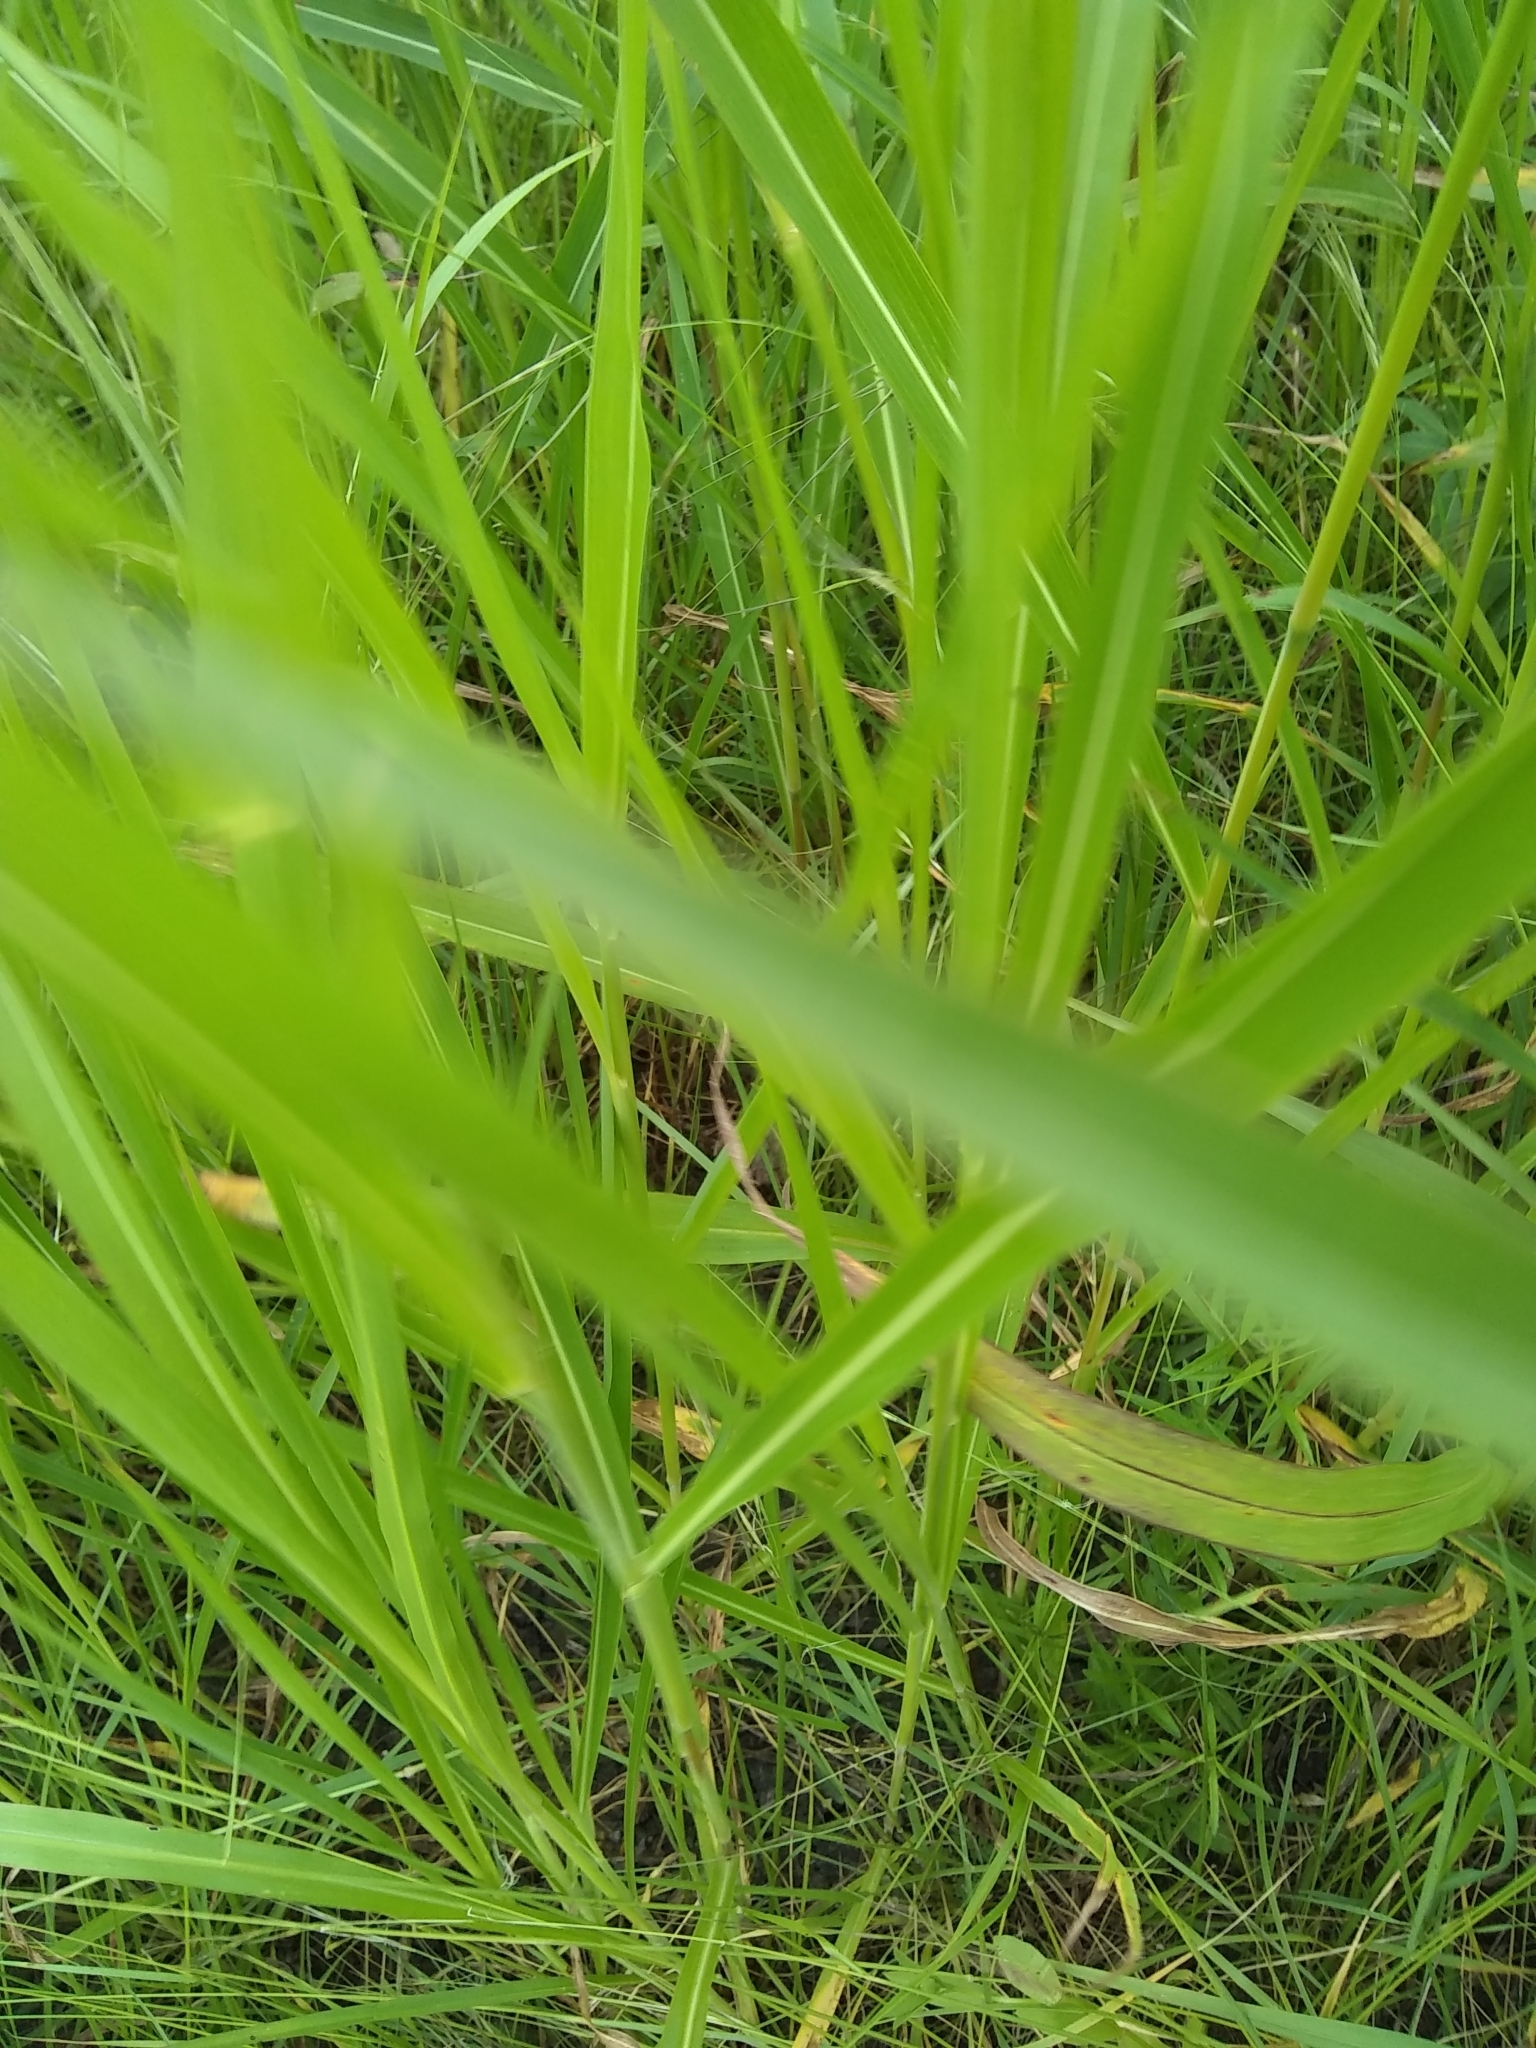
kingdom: Plantae
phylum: Tracheophyta
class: Liliopsida
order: Poales
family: Poaceae
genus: Sorghum
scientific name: Sorghum halepense
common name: Johnson-grass
